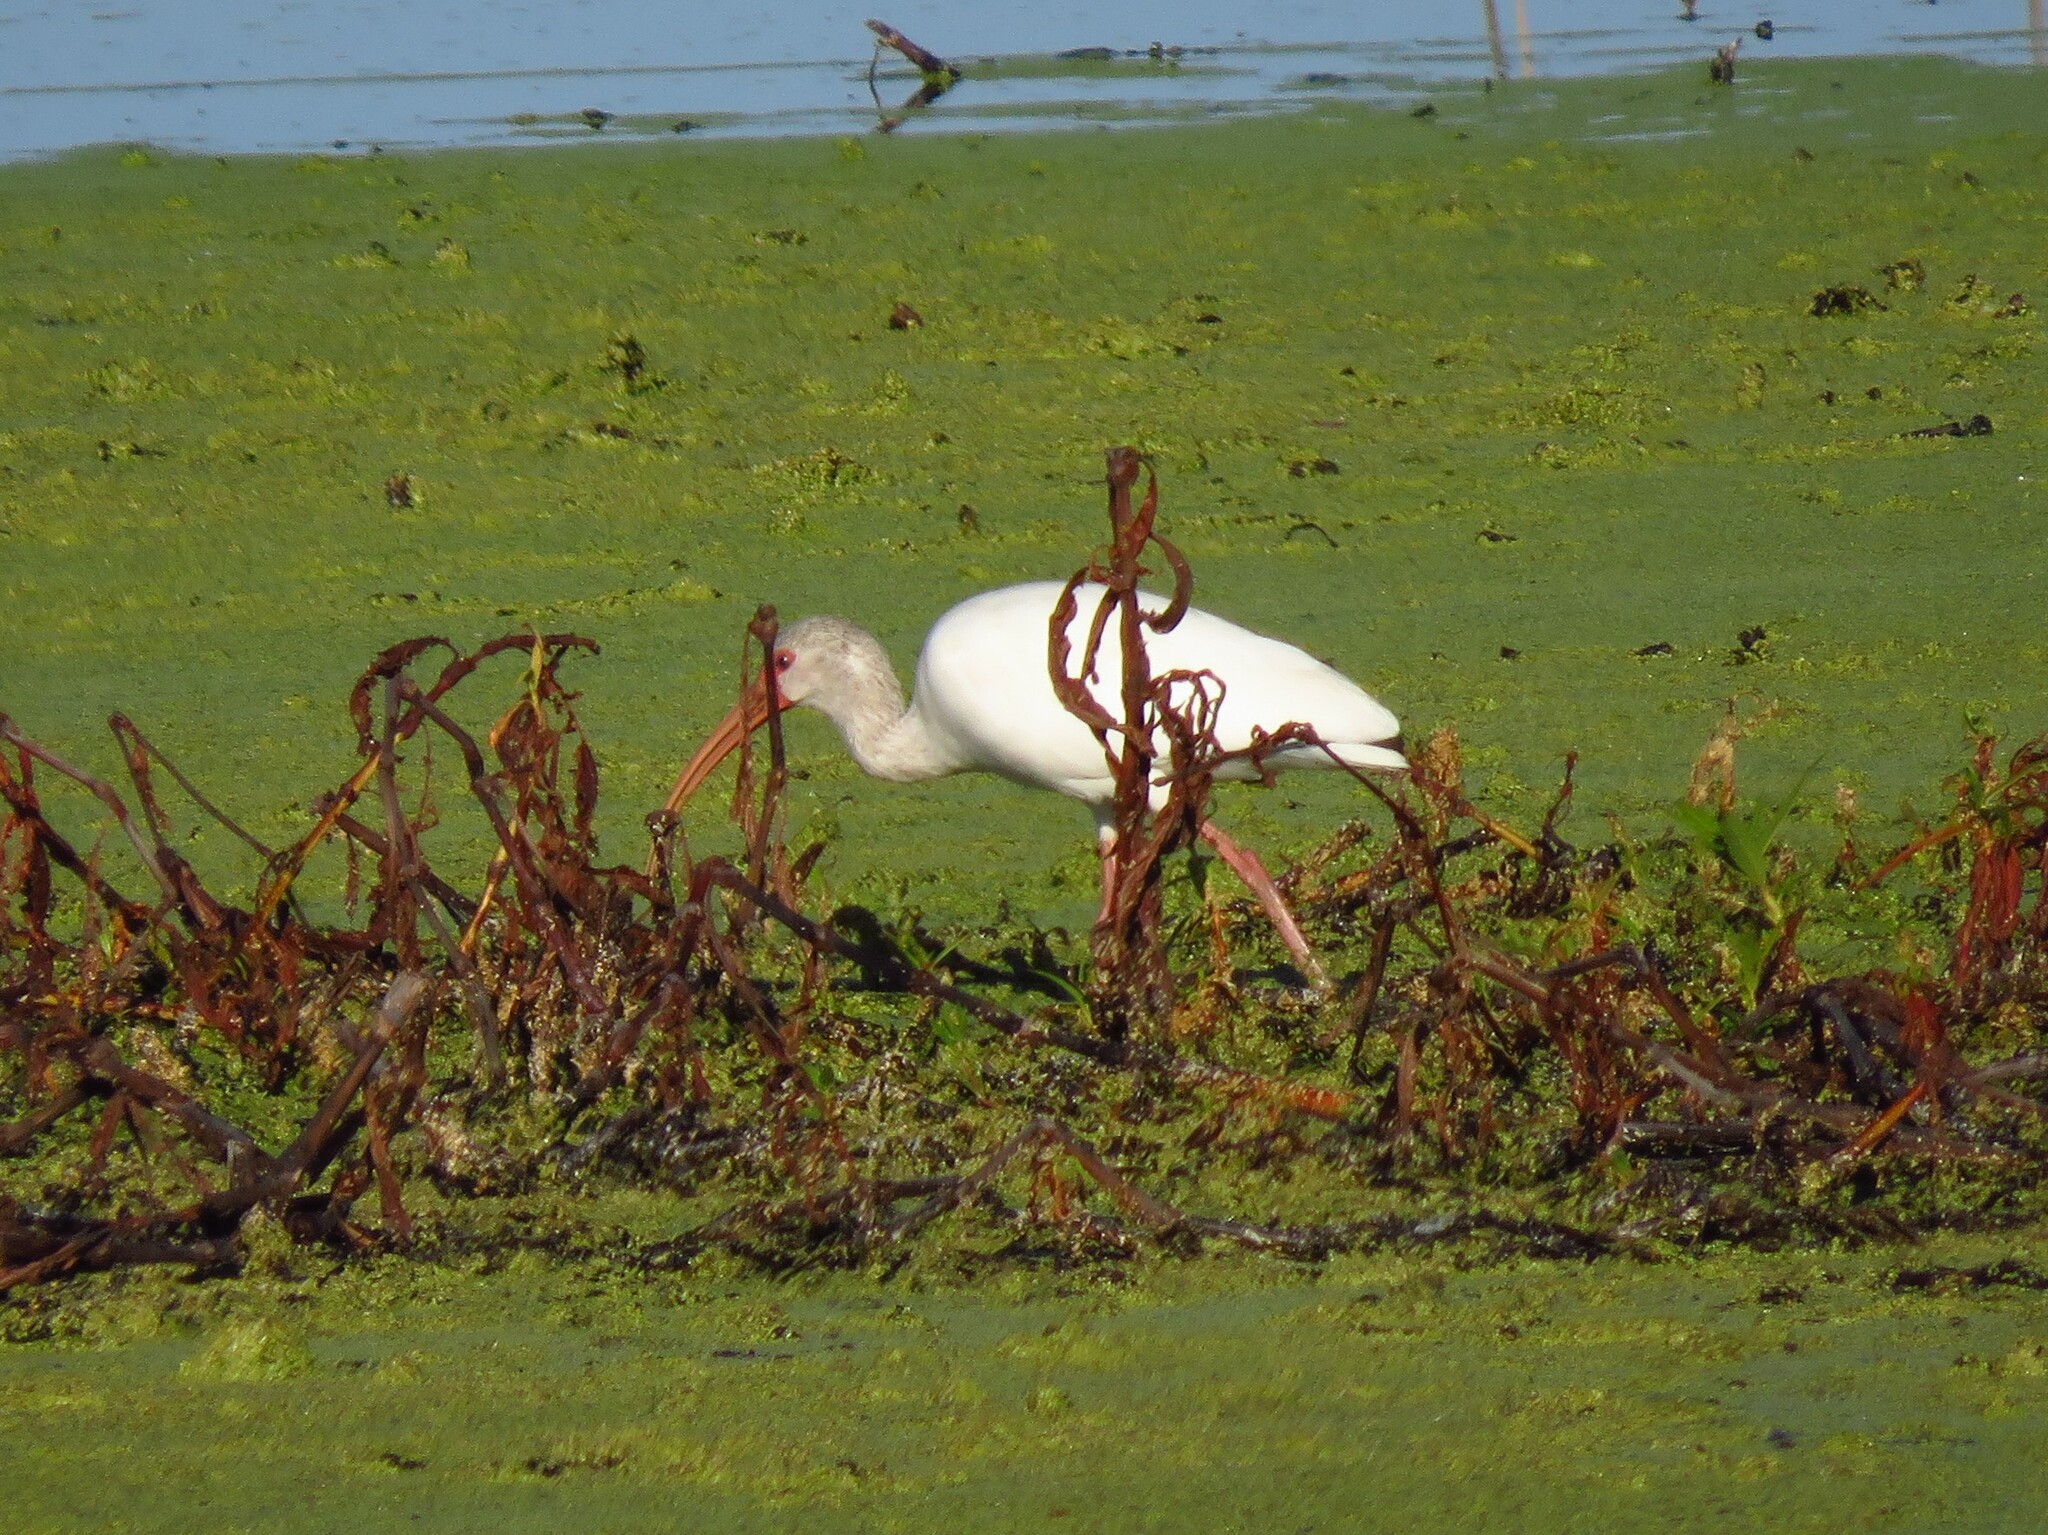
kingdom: Animalia
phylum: Chordata
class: Aves
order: Pelecaniformes
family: Threskiornithidae
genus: Eudocimus
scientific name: Eudocimus albus
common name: White ibis
